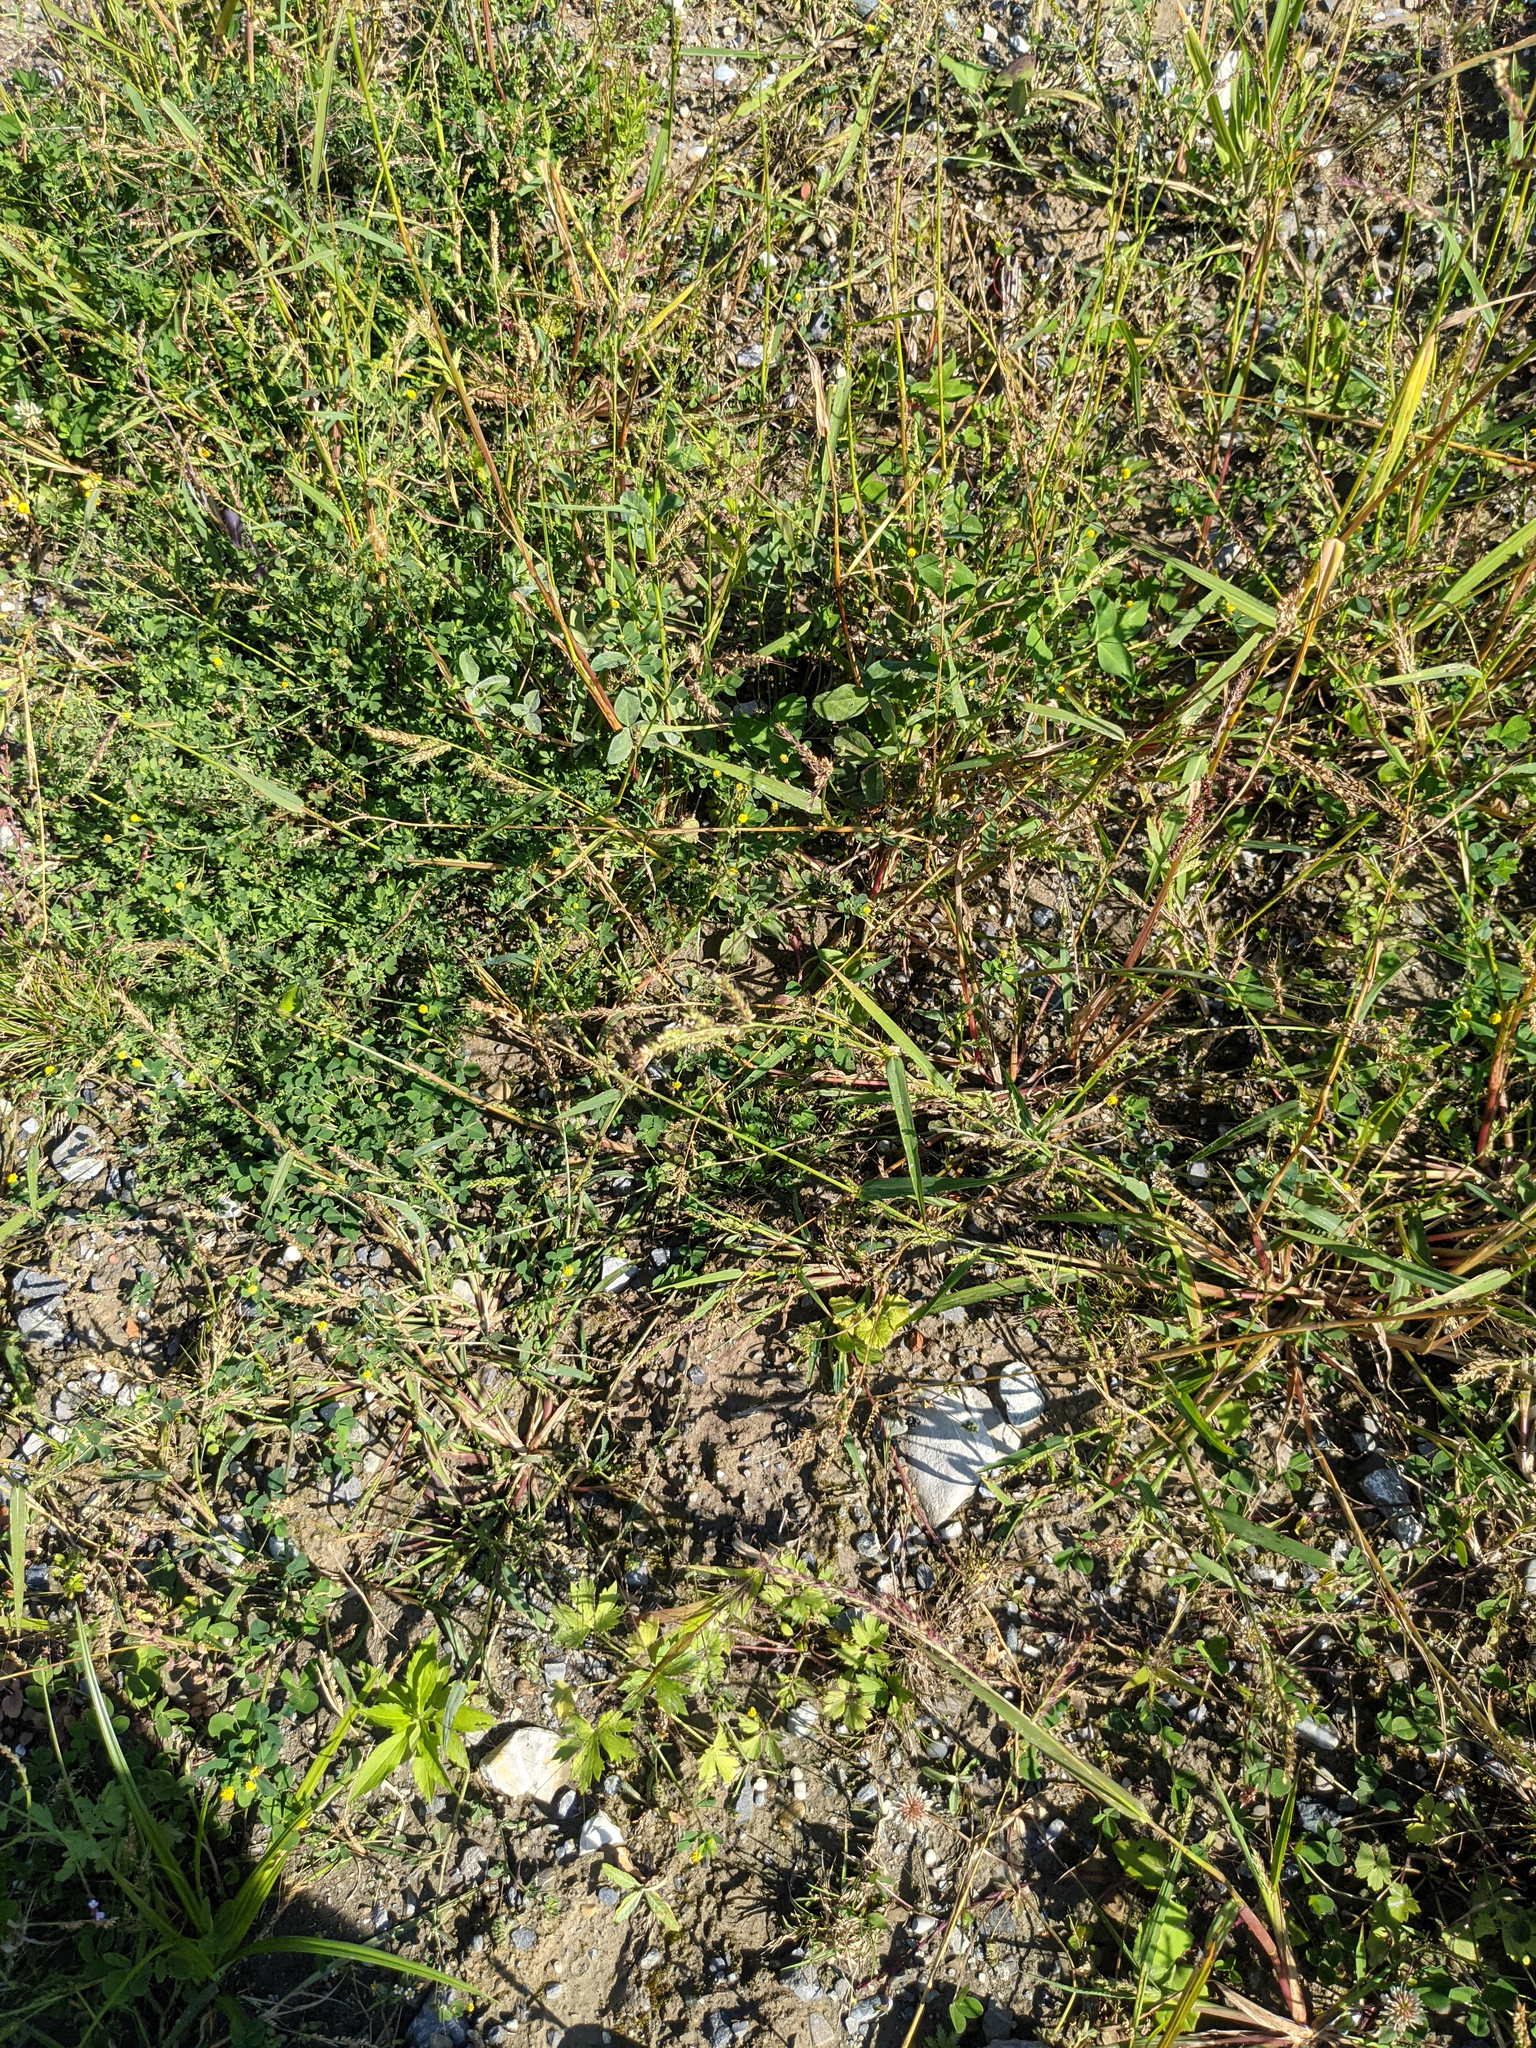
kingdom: Plantae
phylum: Tracheophyta
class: Liliopsida
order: Poales
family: Poaceae
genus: Echinochloa
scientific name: Echinochloa crus-galli
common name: Cockspur
